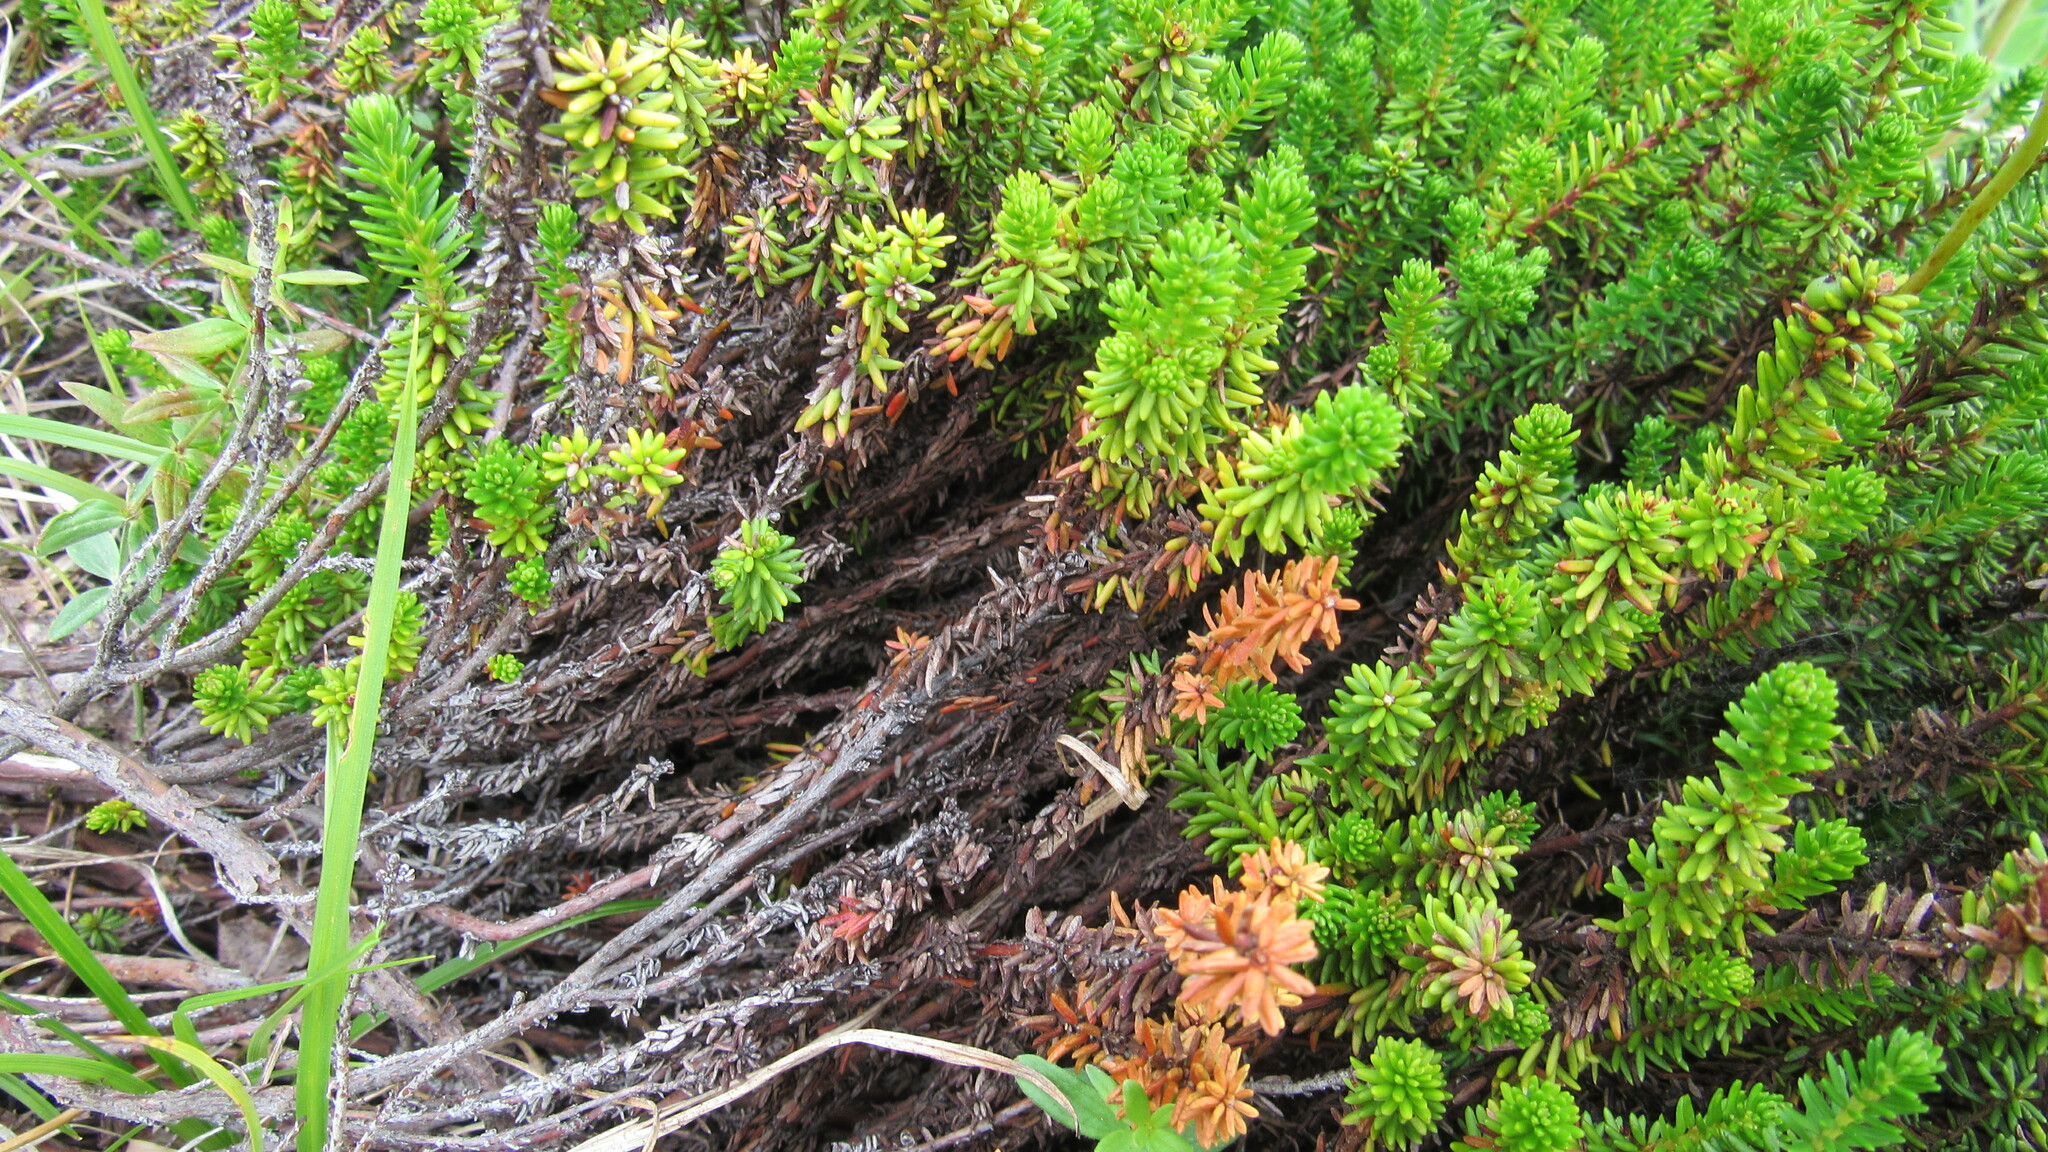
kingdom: Plantae
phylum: Tracheophyta
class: Magnoliopsida
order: Ericales
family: Ericaceae
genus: Empetrum
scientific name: Empetrum nigrum
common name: Black crowberry
